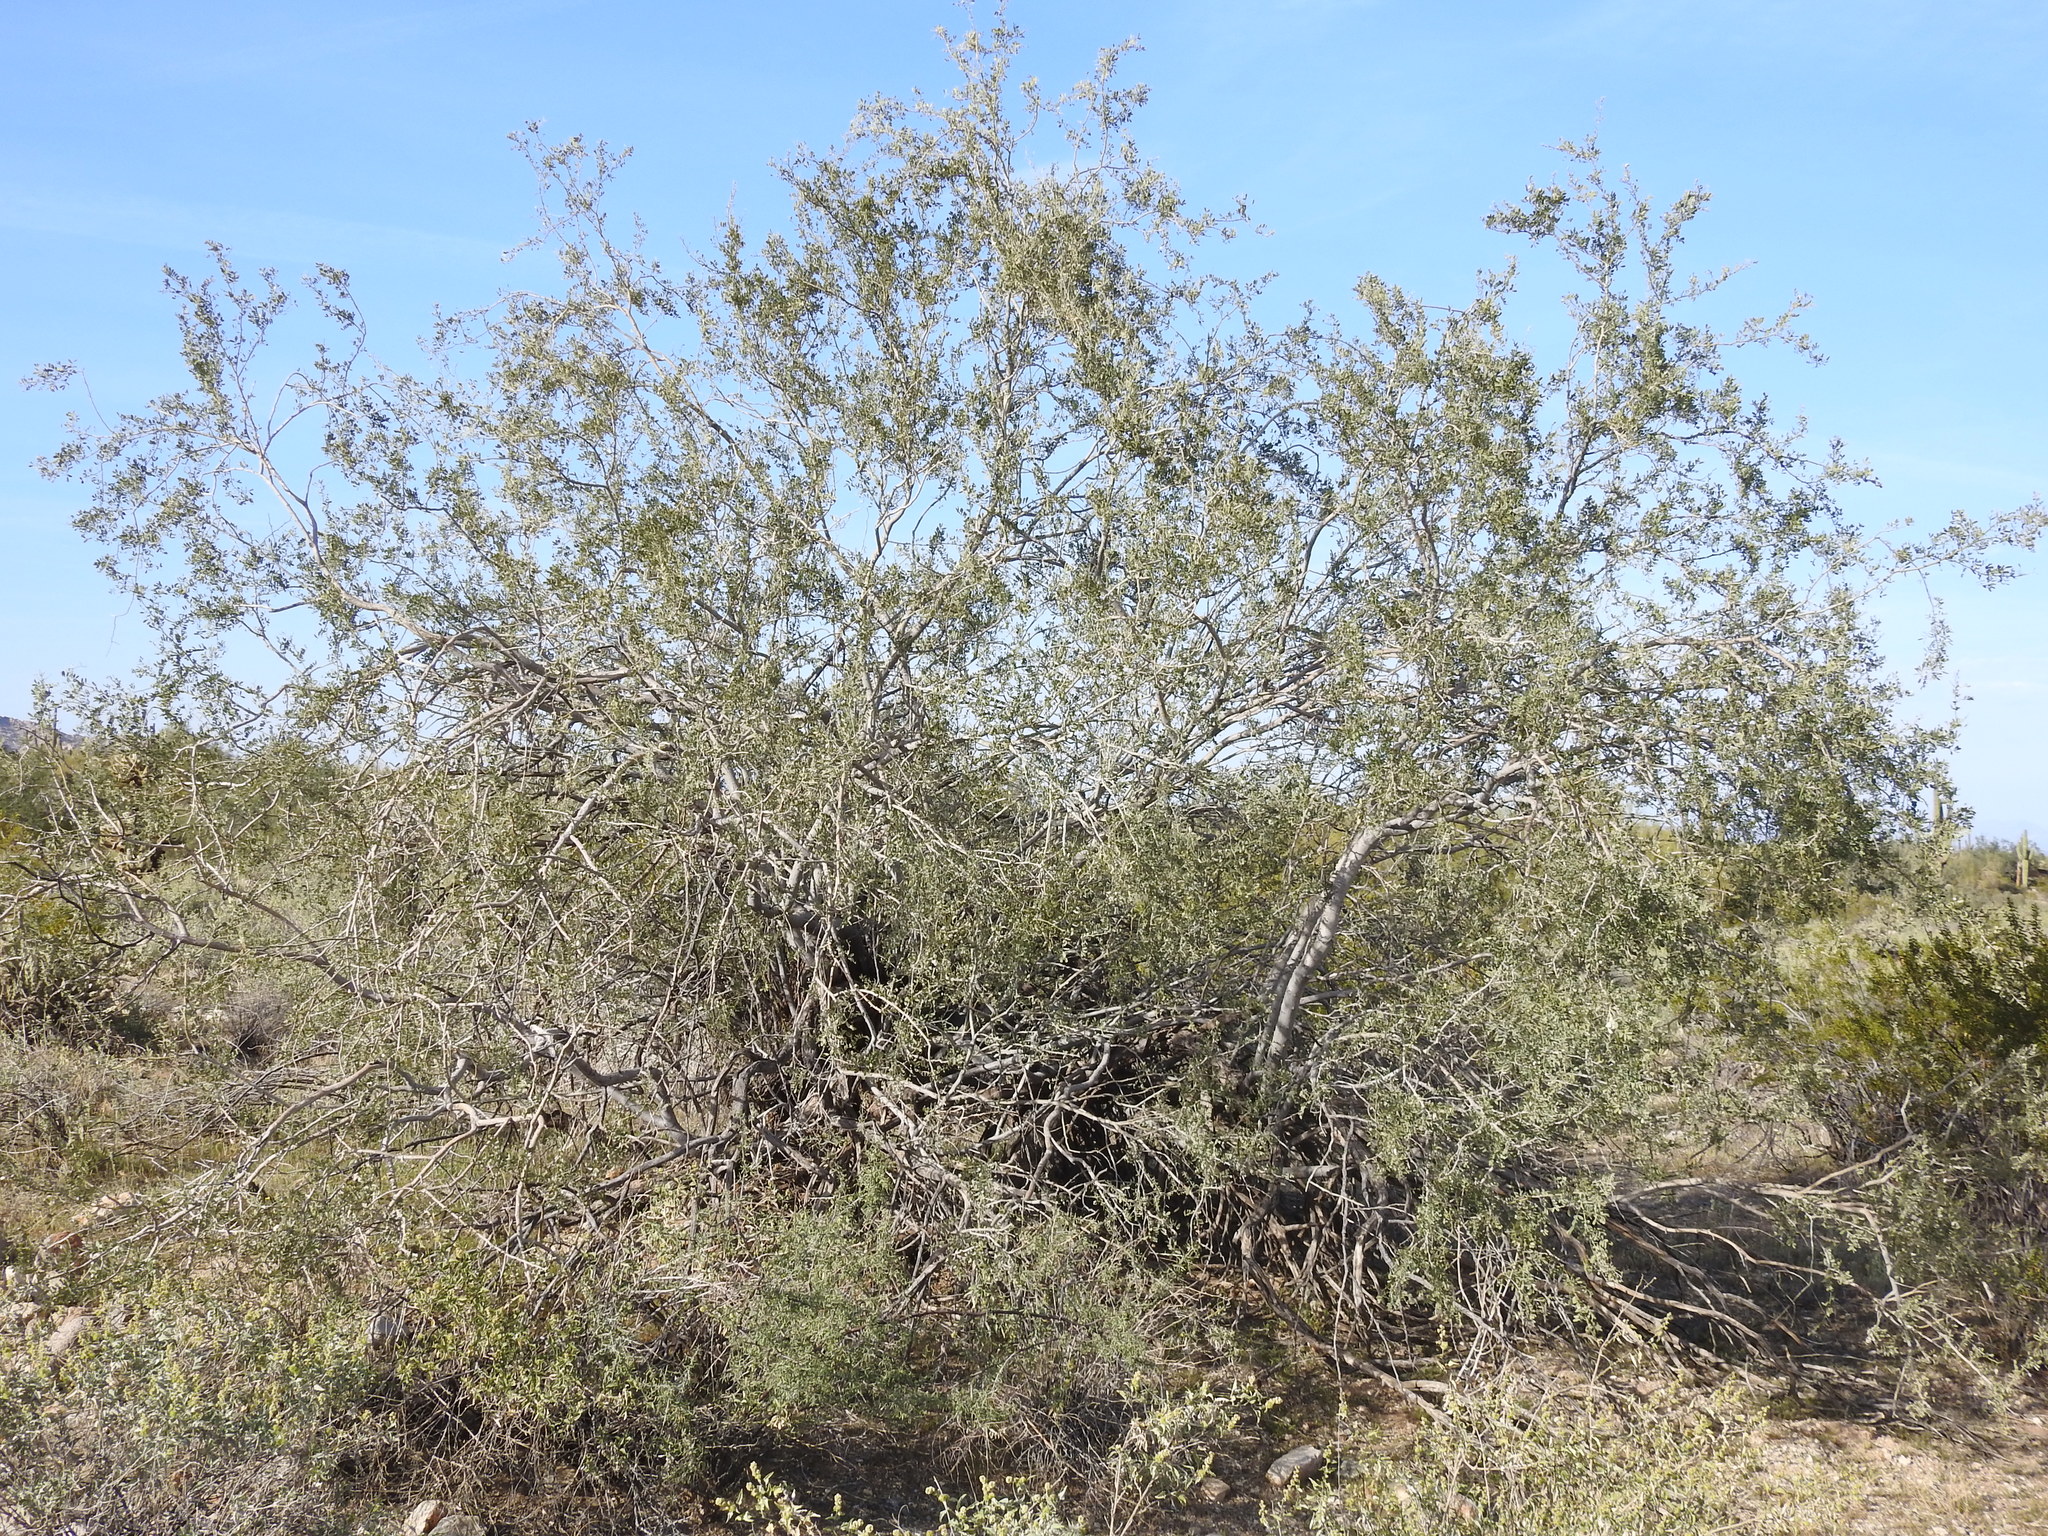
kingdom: Plantae
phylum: Tracheophyta
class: Magnoliopsida
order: Fabales
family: Fabaceae
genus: Olneya
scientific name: Olneya tesota
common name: Desert ironwood
